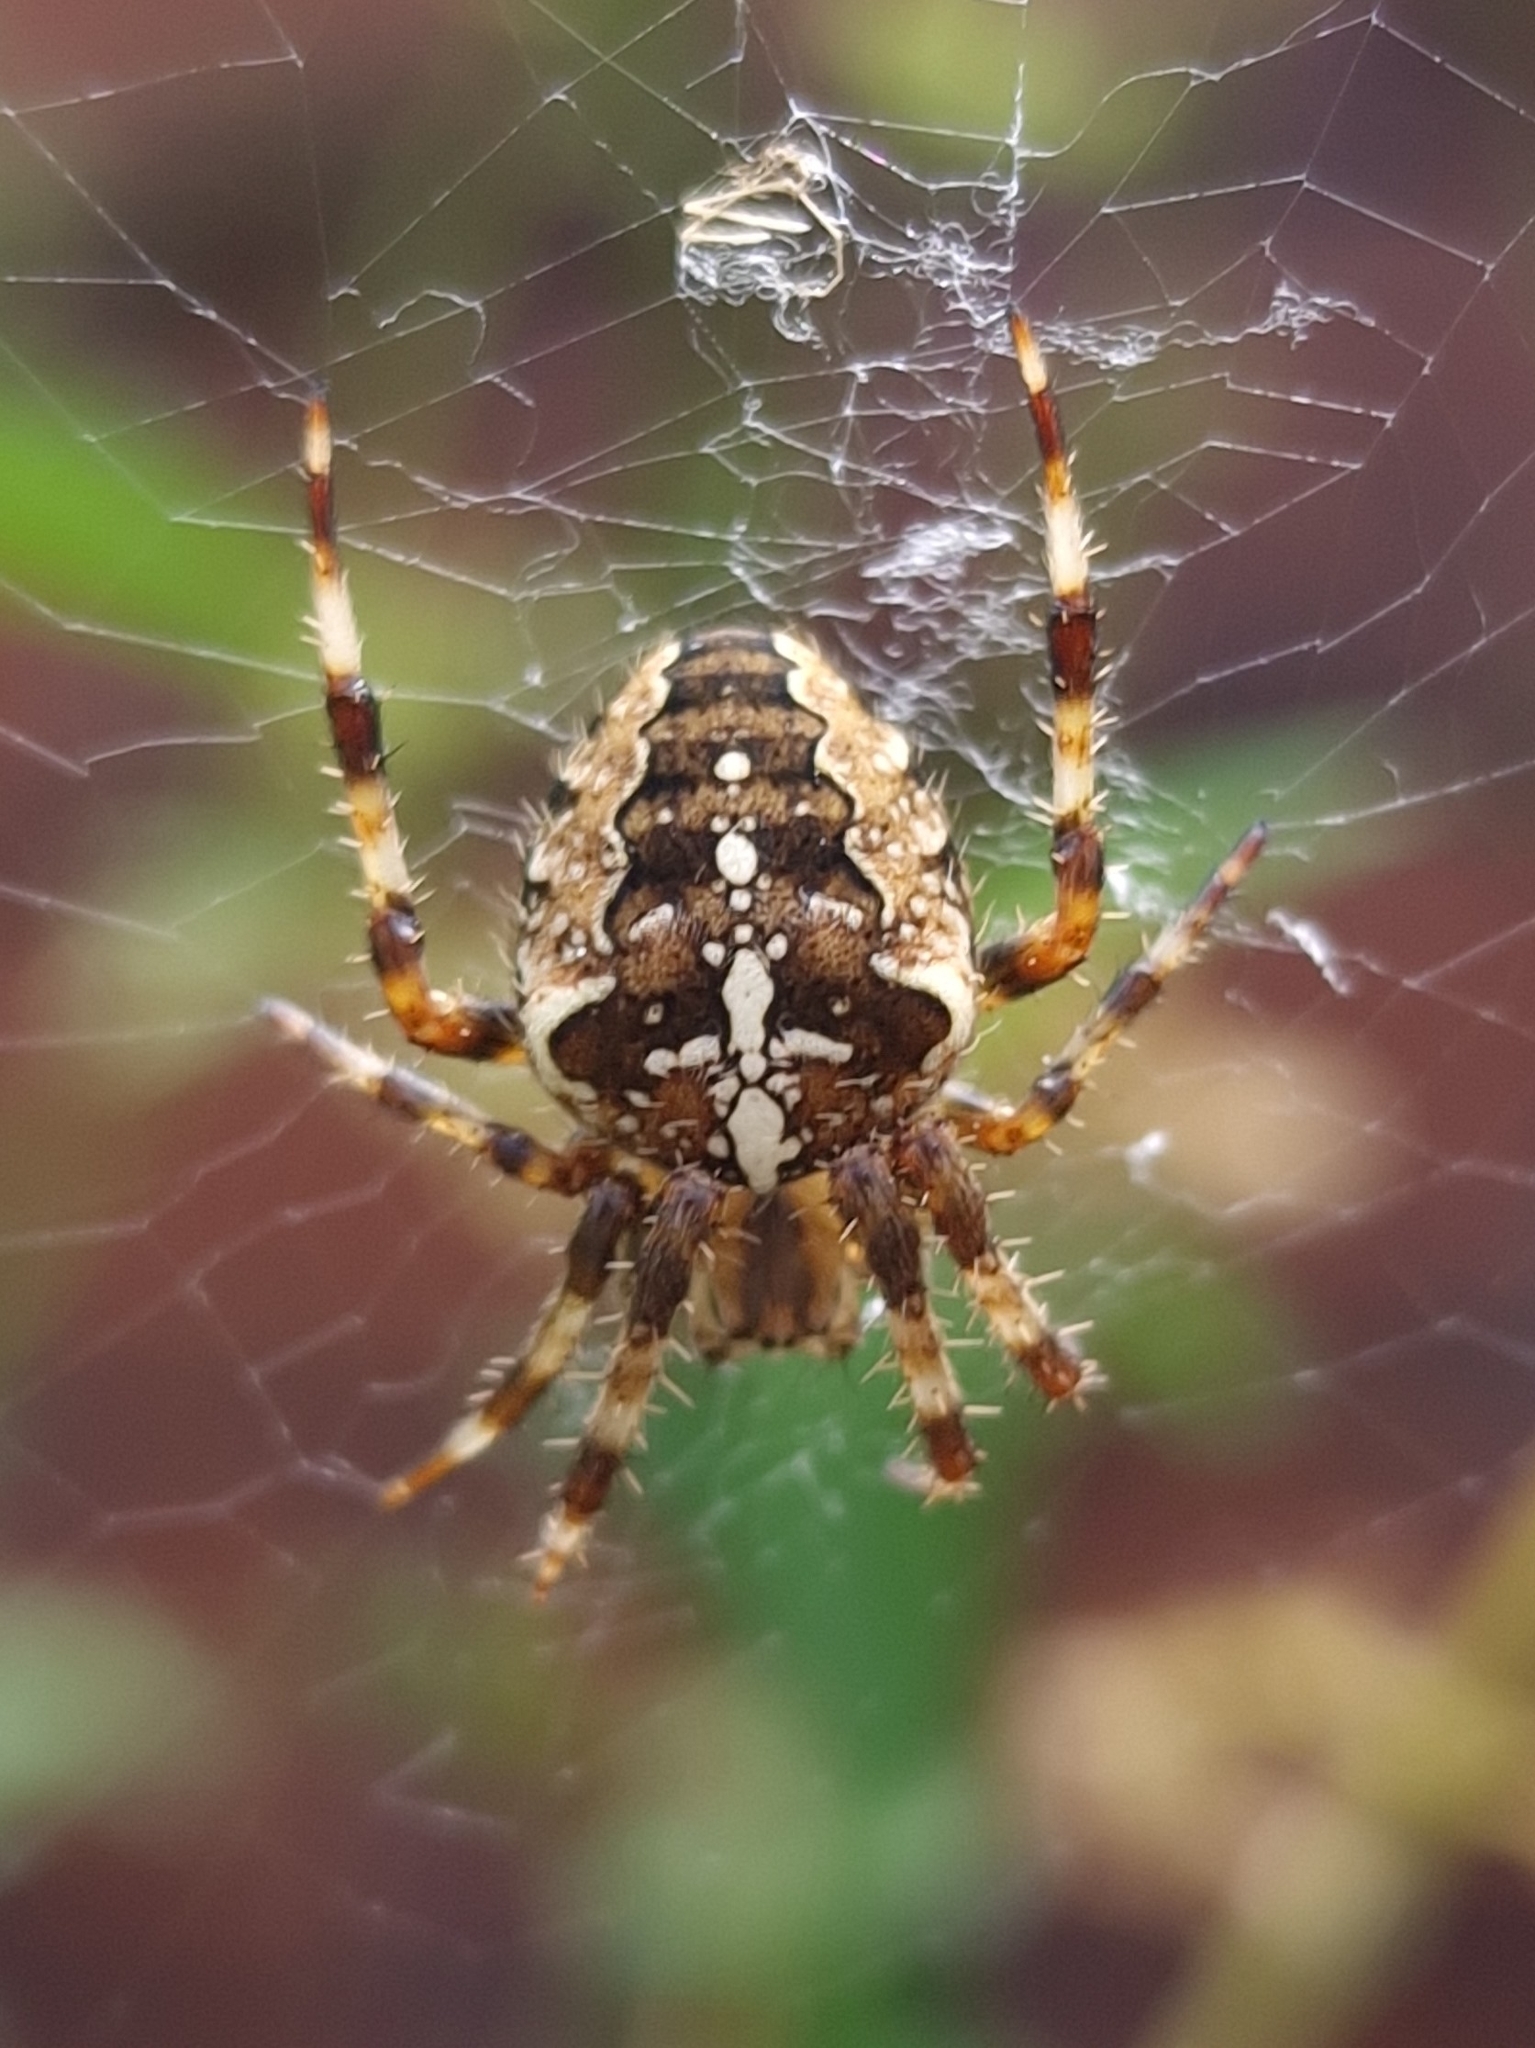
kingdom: Animalia
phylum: Arthropoda
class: Arachnida
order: Araneae
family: Araneidae
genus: Araneus
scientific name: Araneus diadematus
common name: Cross orbweaver
